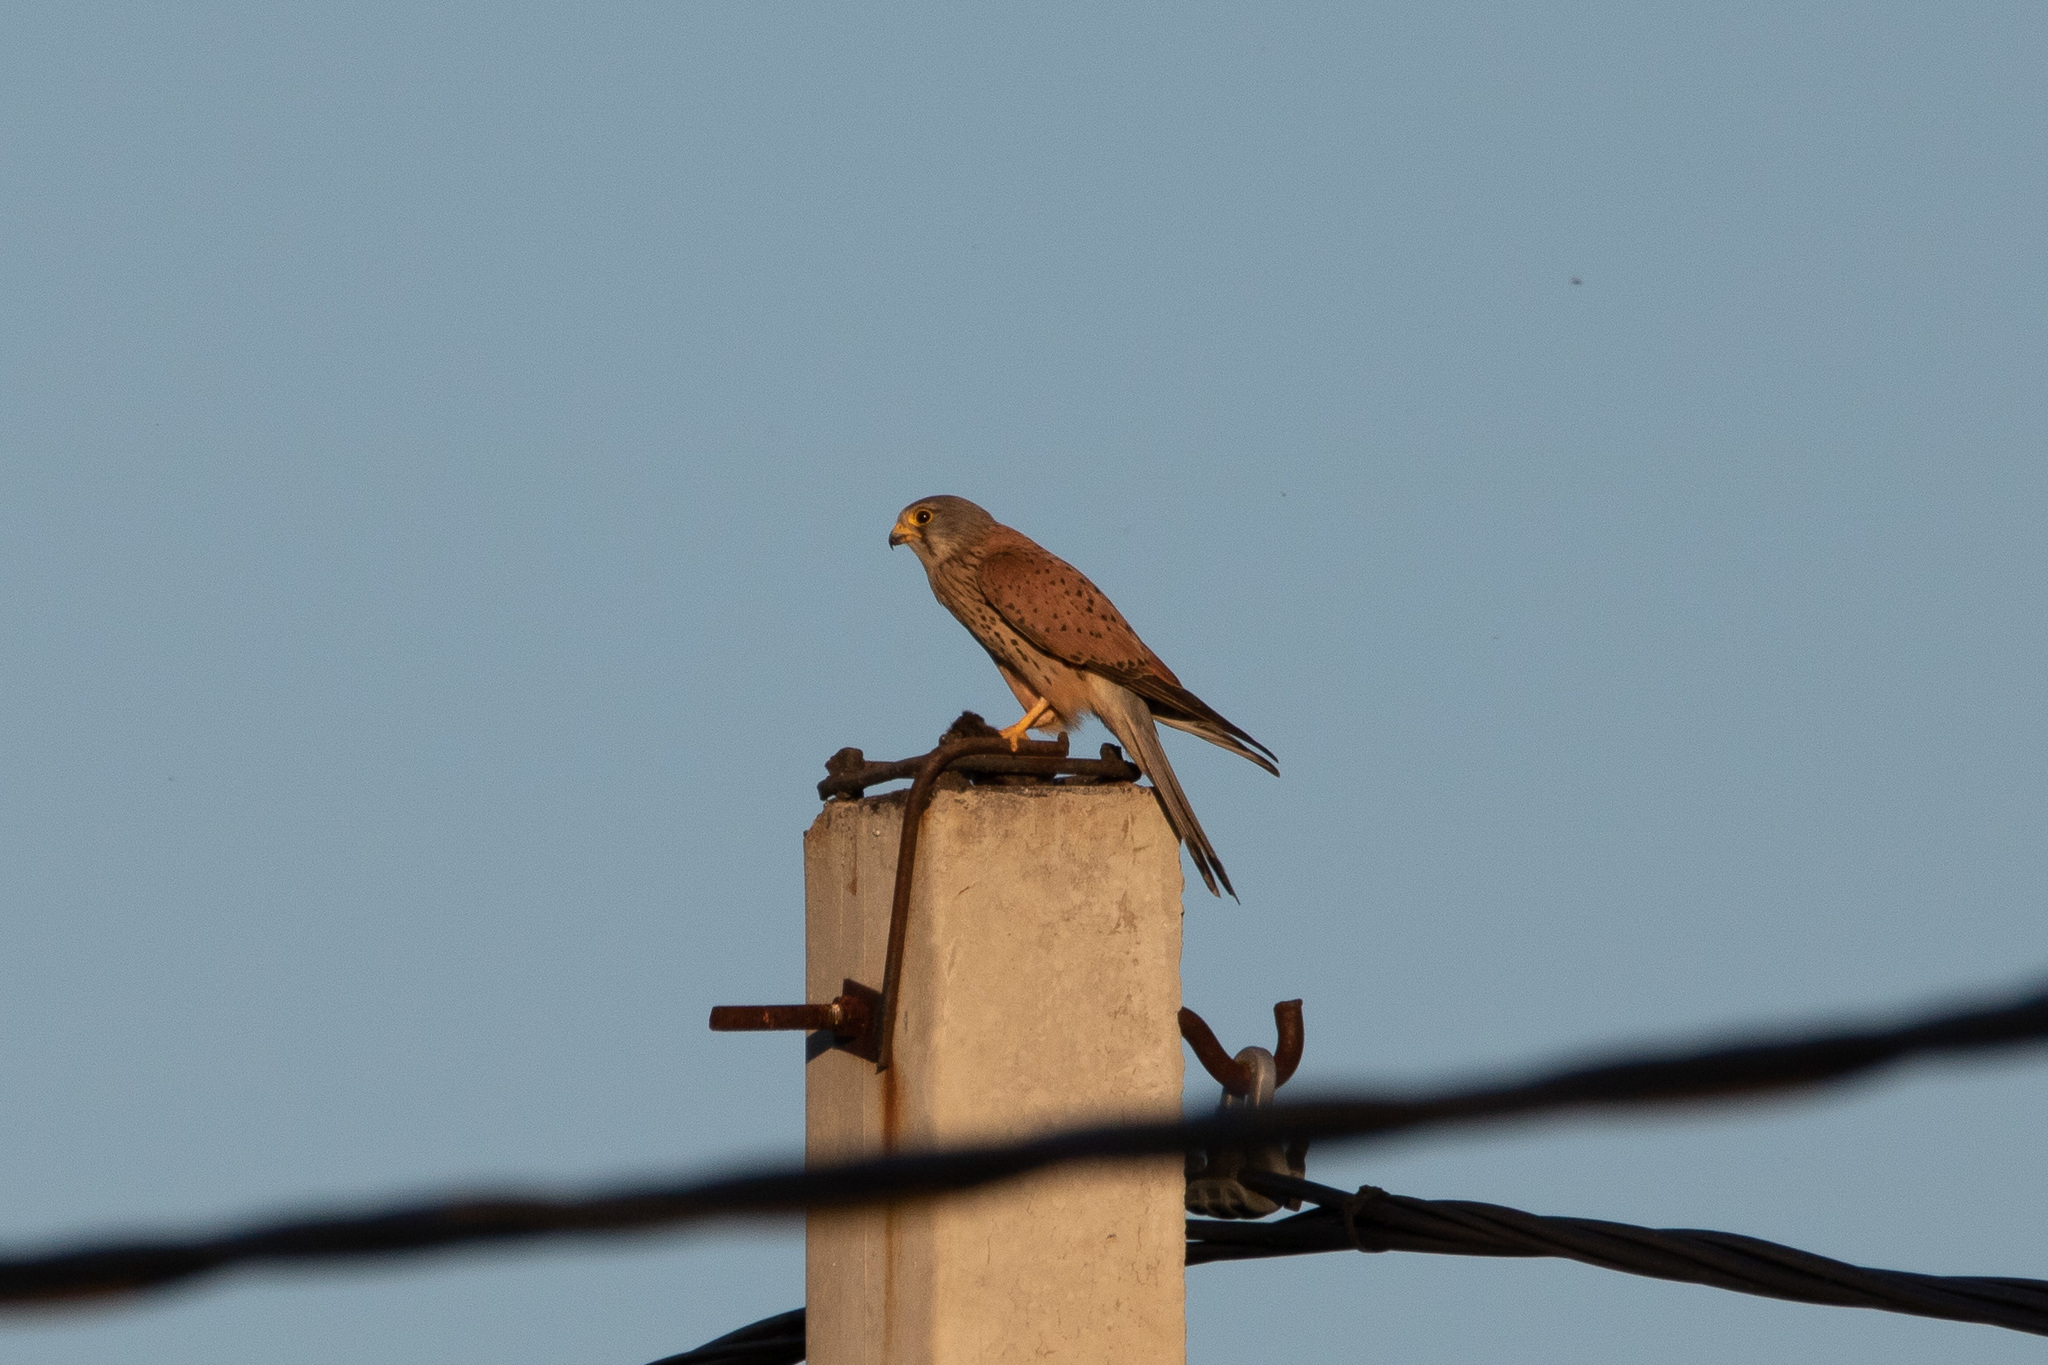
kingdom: Animalia
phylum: Chordata
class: Aves
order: Falconiformes
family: Falconidae
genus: Falco
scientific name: Falco tinnunculus
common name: Common kestrel
